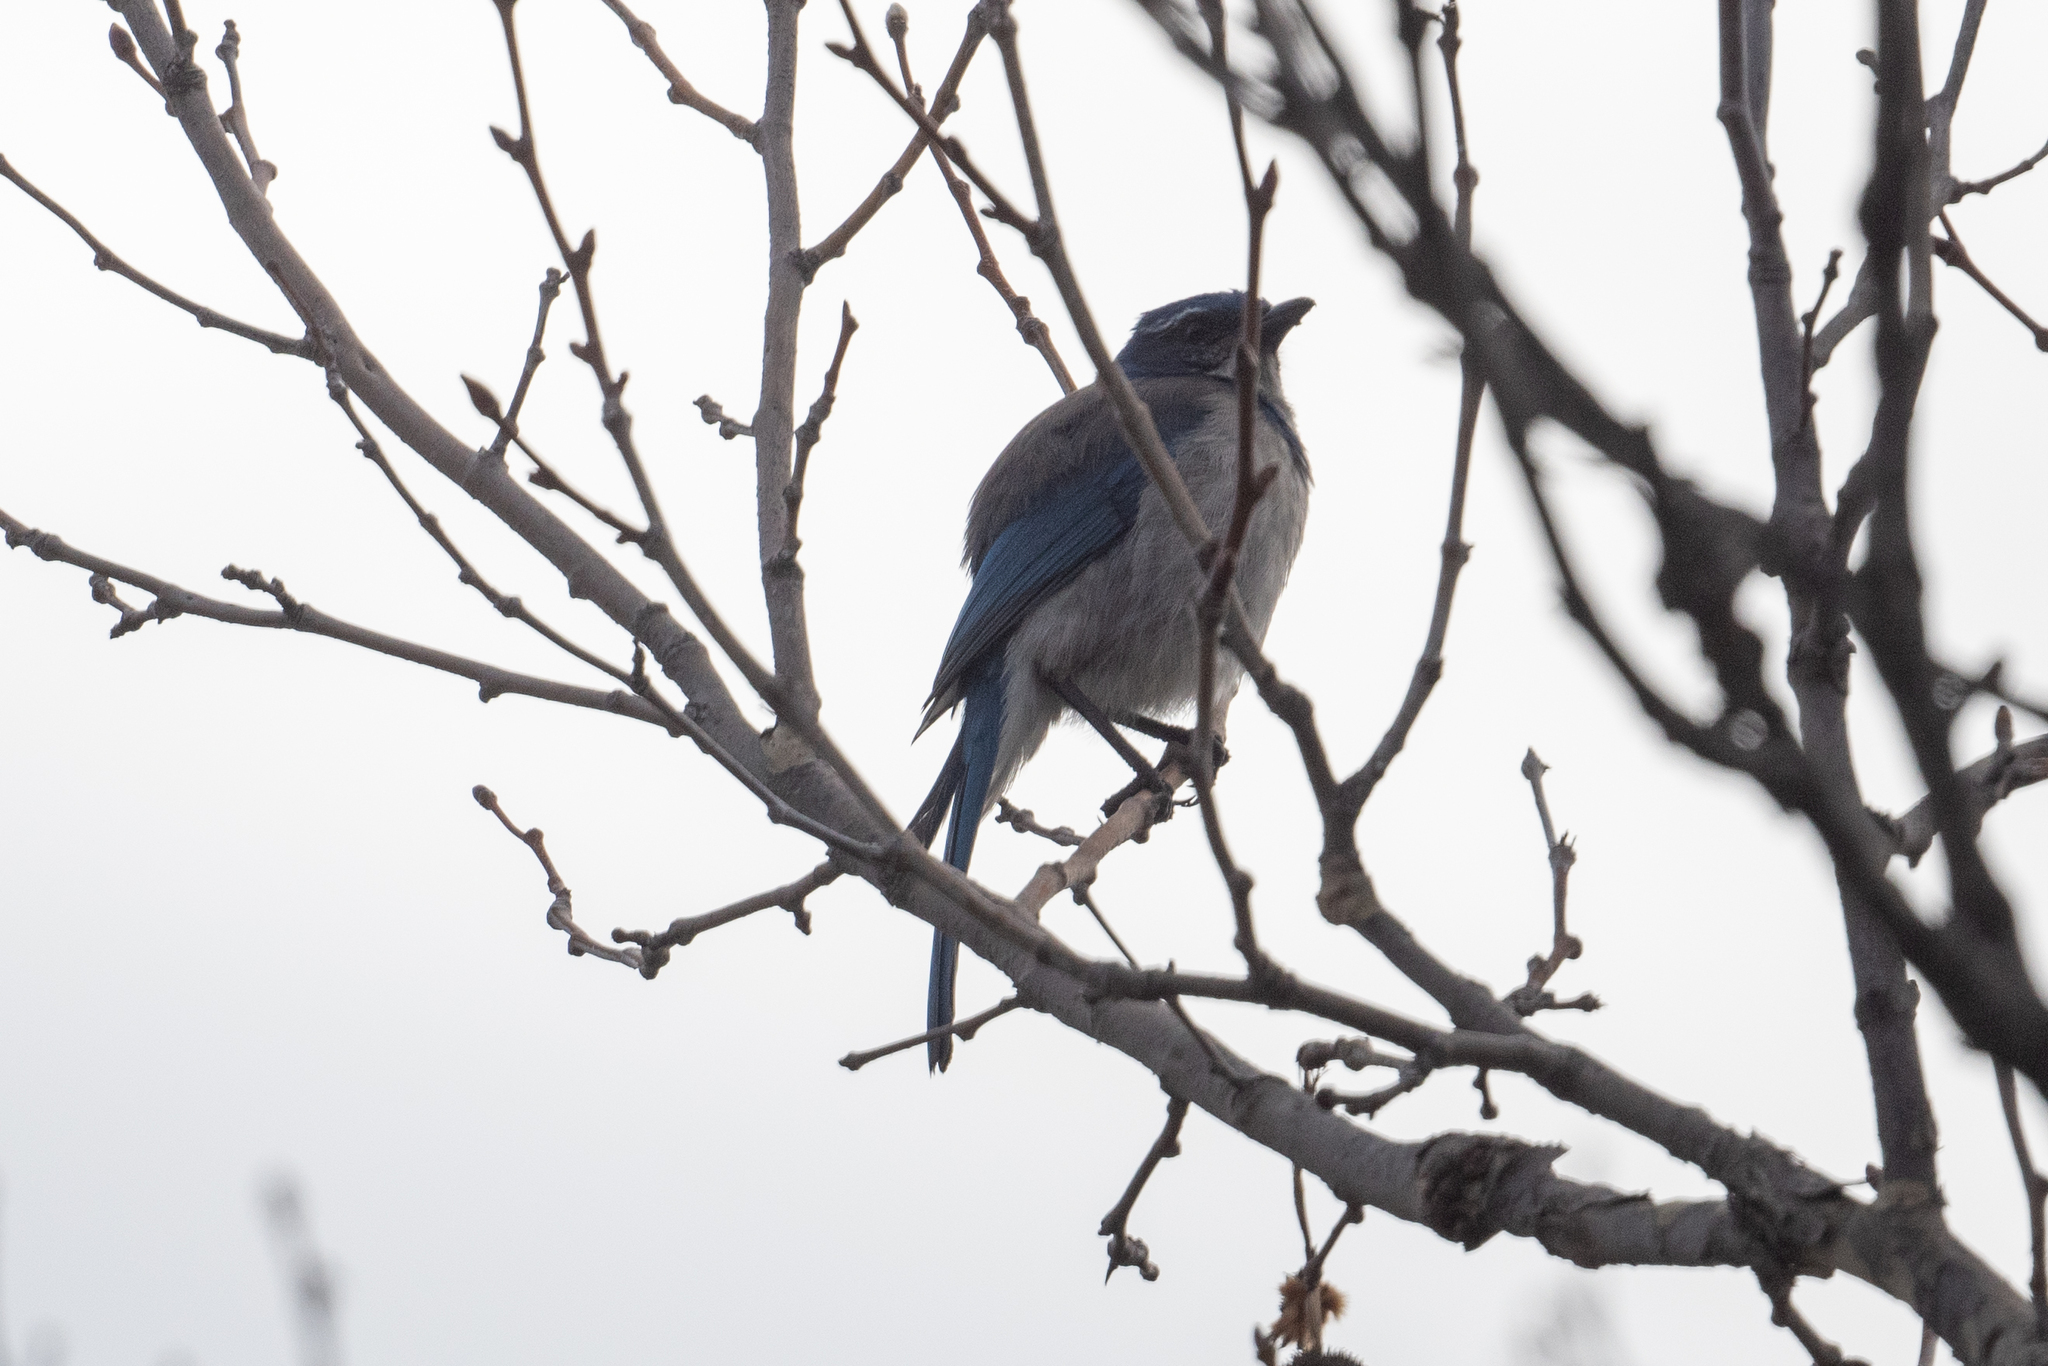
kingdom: Animalia
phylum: Chordata
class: Aves
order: Passeriformes
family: Corvidae
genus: Aphelocoma
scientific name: Aphelocoma californica
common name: California scrub-jay
